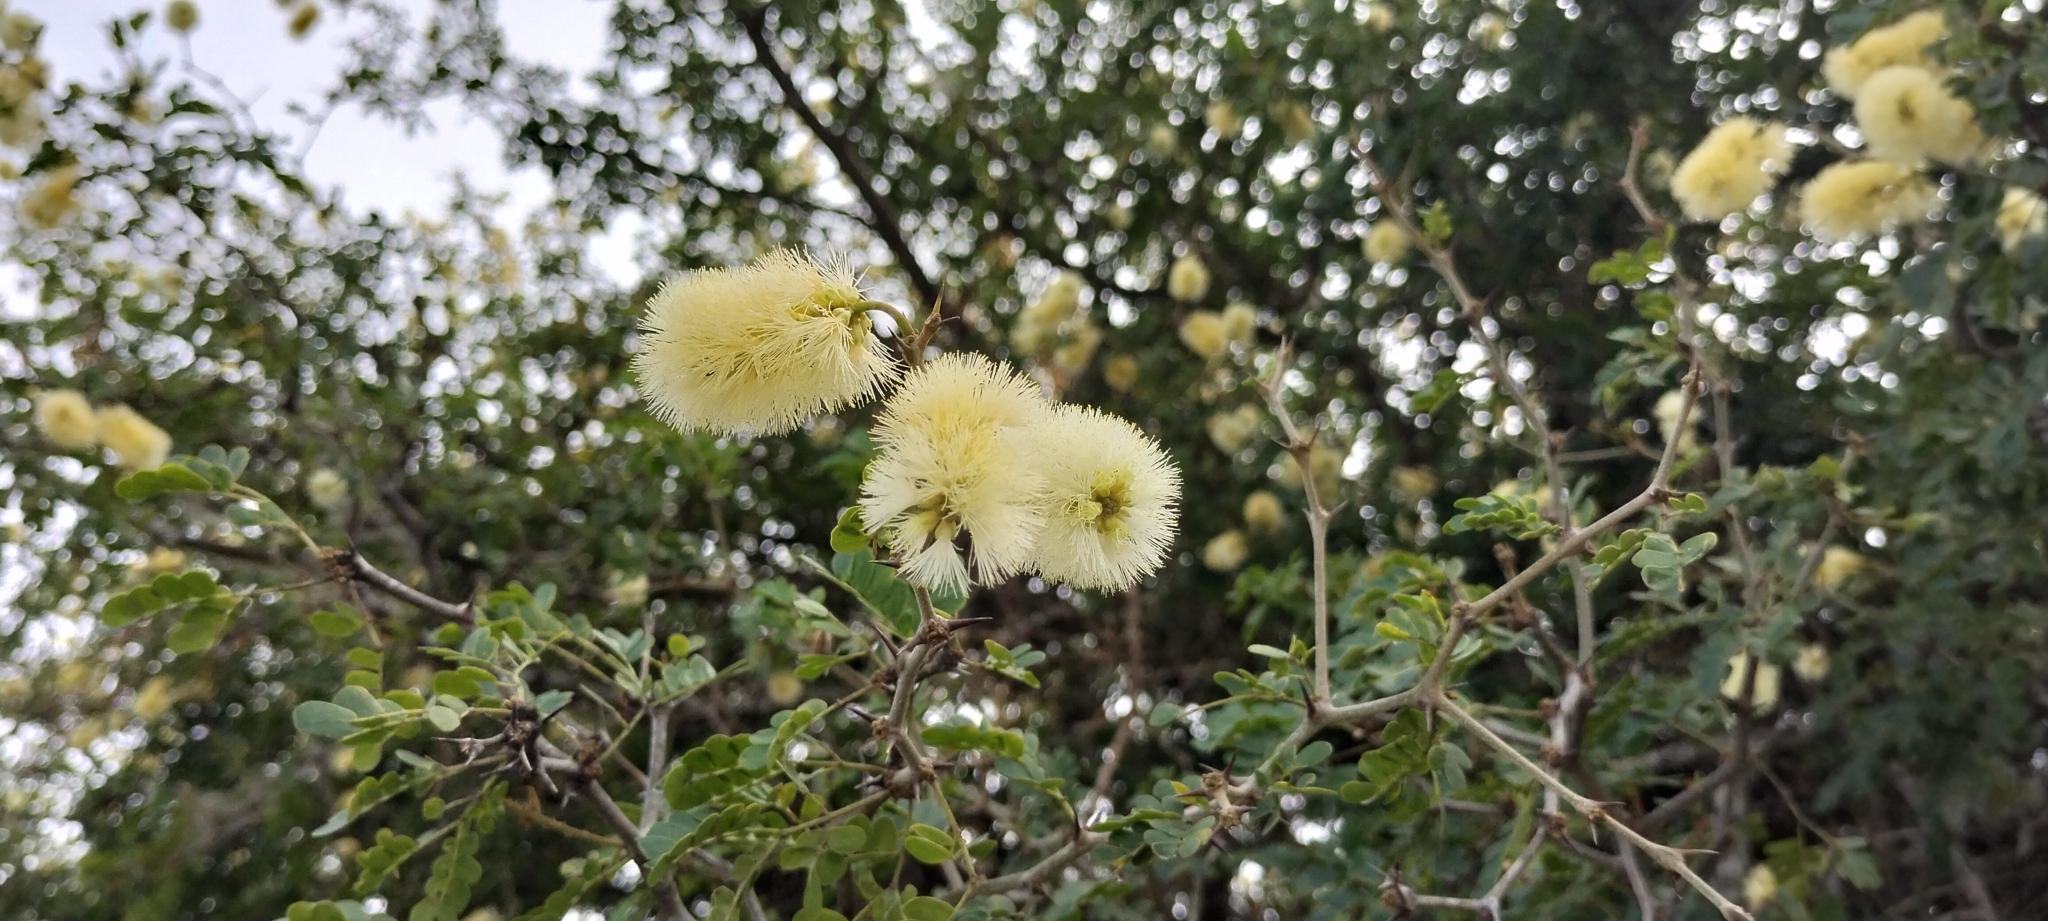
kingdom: Plantae
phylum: Tracheophyta
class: Magnoliopsida
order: Fabales
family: Fabaceae
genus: Ebenopsis
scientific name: Ebenopsis ebano
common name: Ebony blackbead
